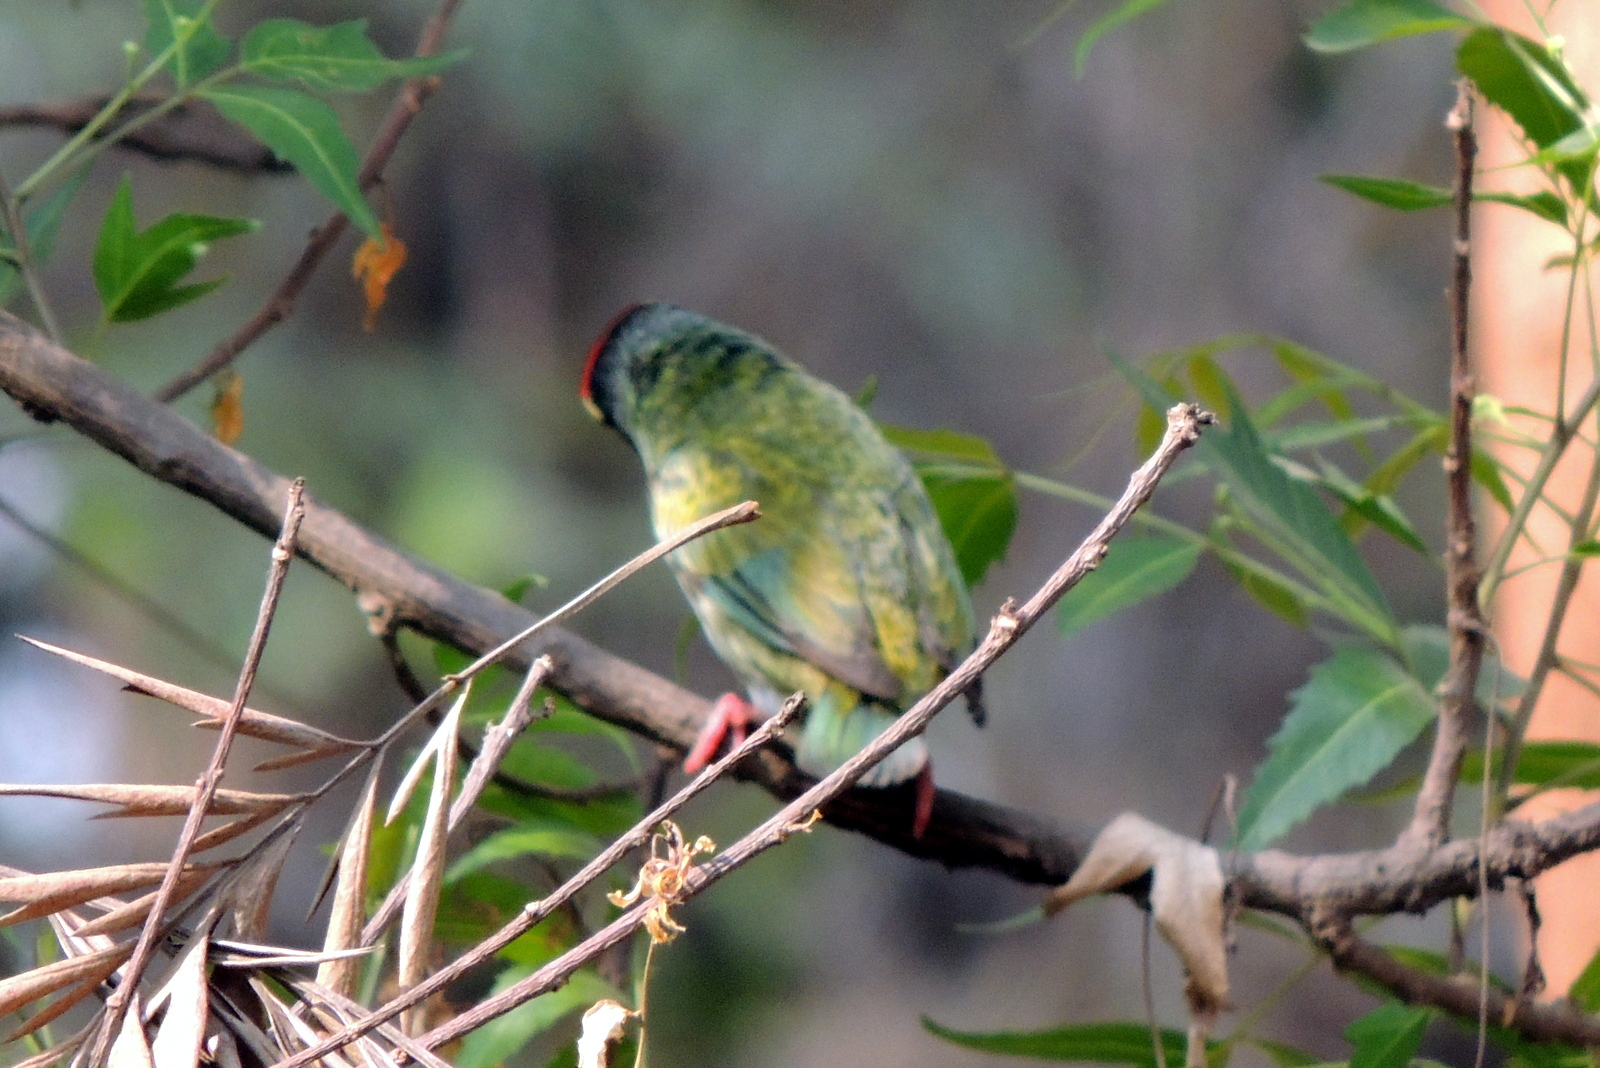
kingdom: Animalia
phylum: Chordata
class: Aves
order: Piciformes
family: Megalaimidae
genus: Psilopogon
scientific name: Psilopogon haemacephalus
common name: Coppersmith barbet
